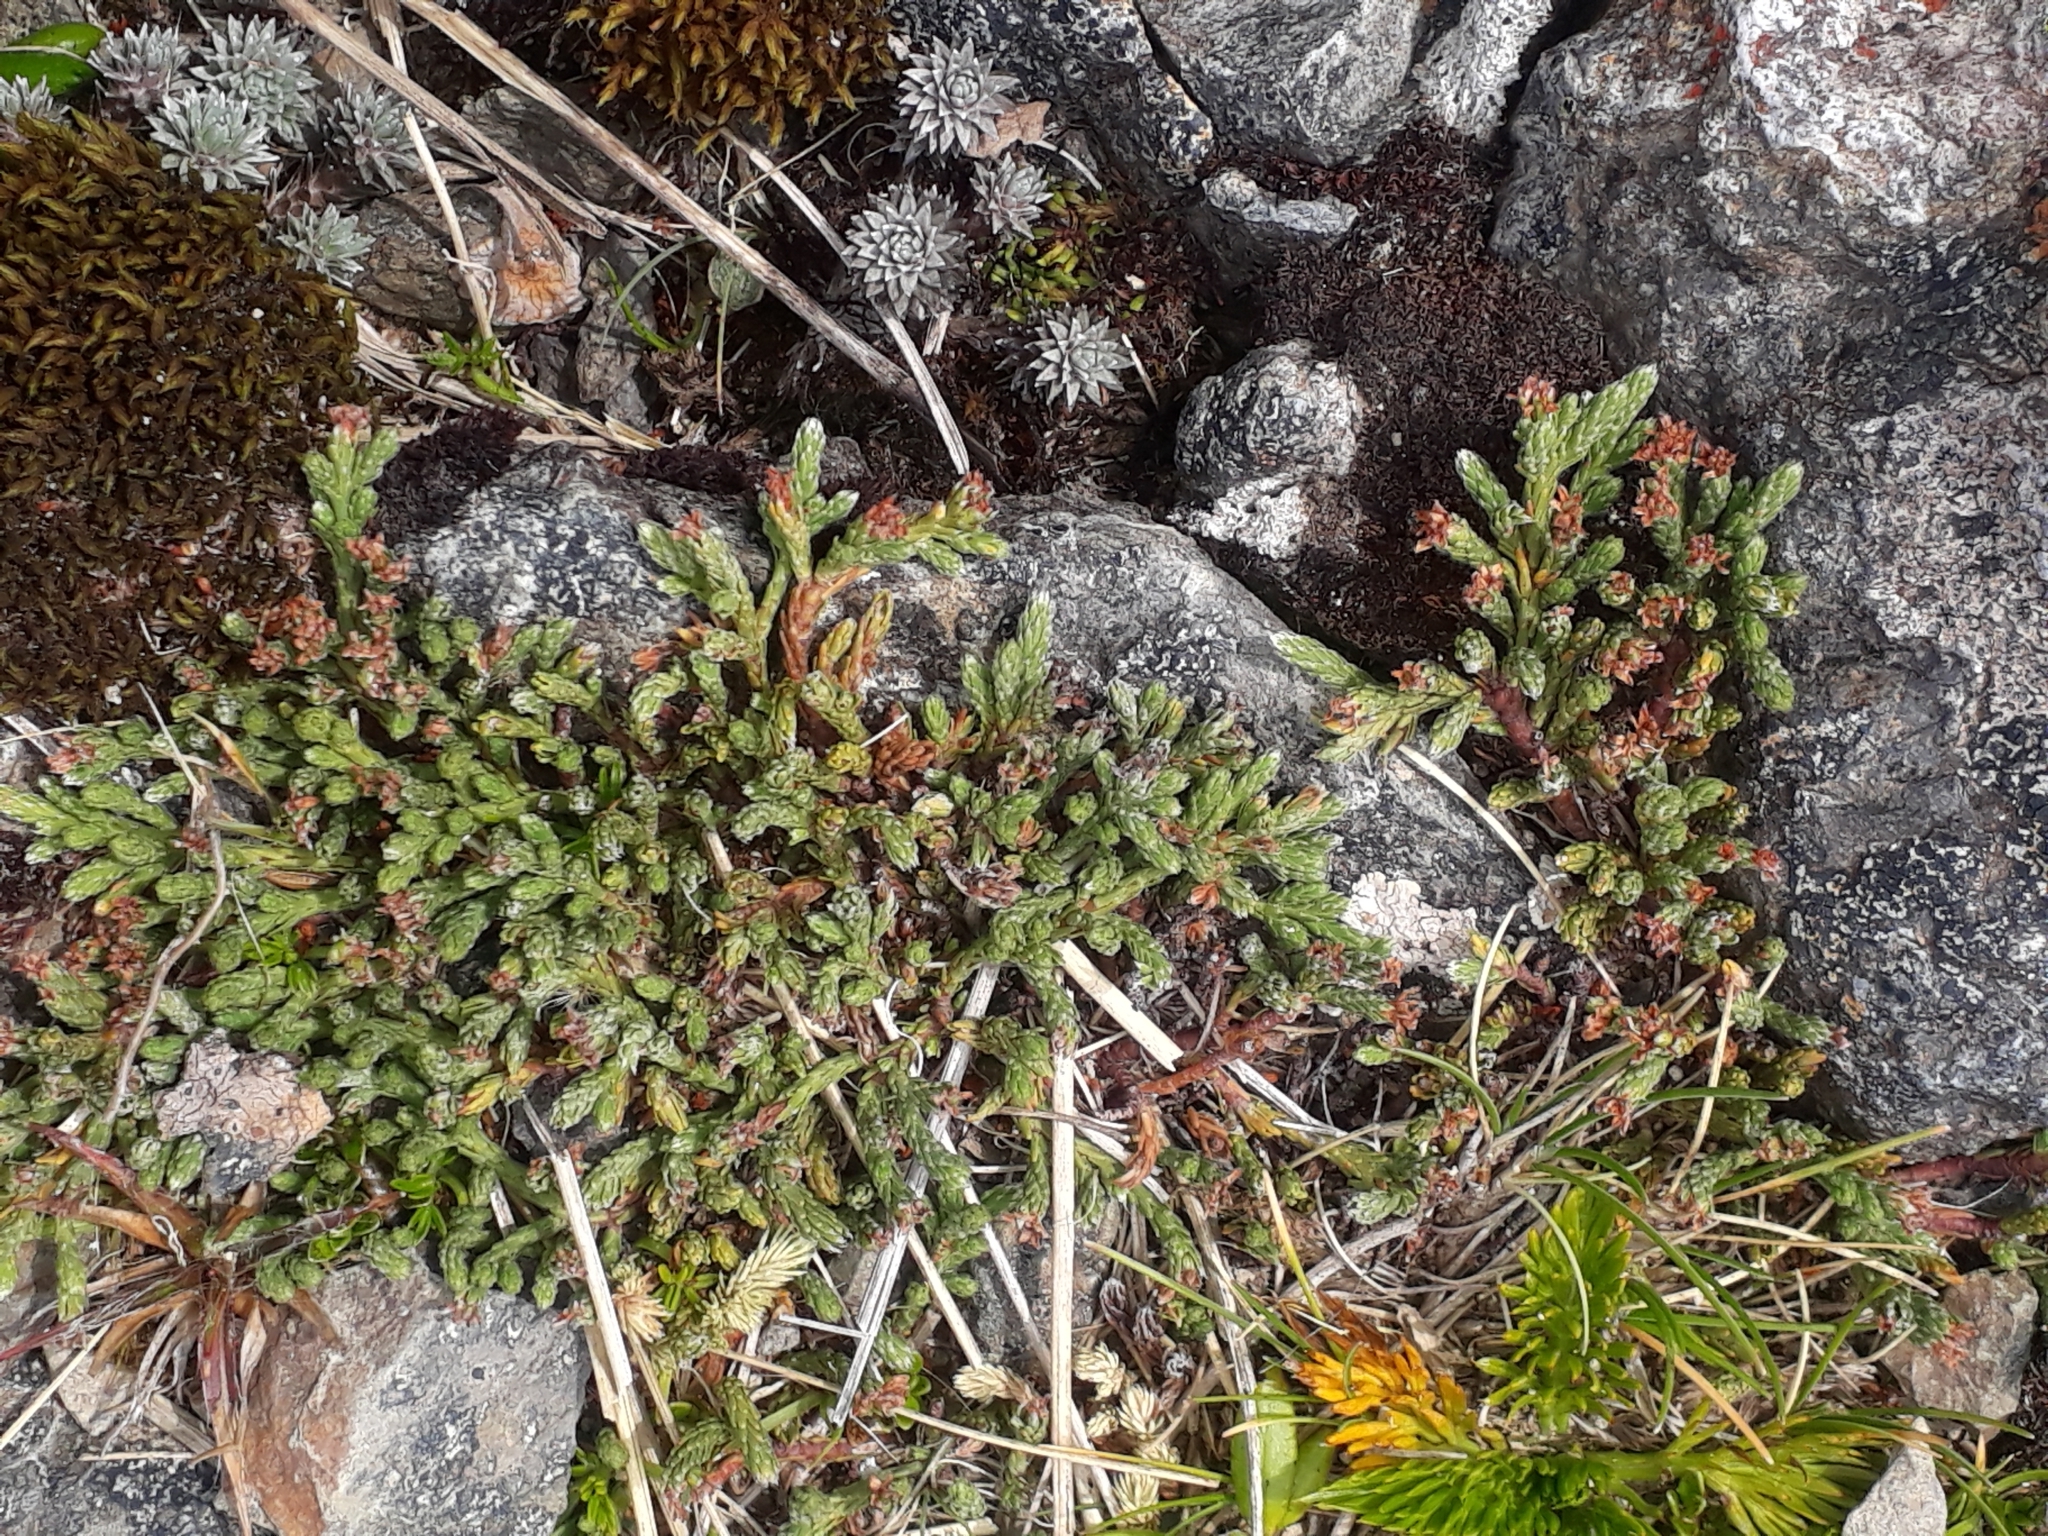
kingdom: Plantae
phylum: Tracheophyta
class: Magnoliopsida
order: Malvales
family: Thymelaeaceae
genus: Kelleria
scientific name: Kelleria dieffenbachii
